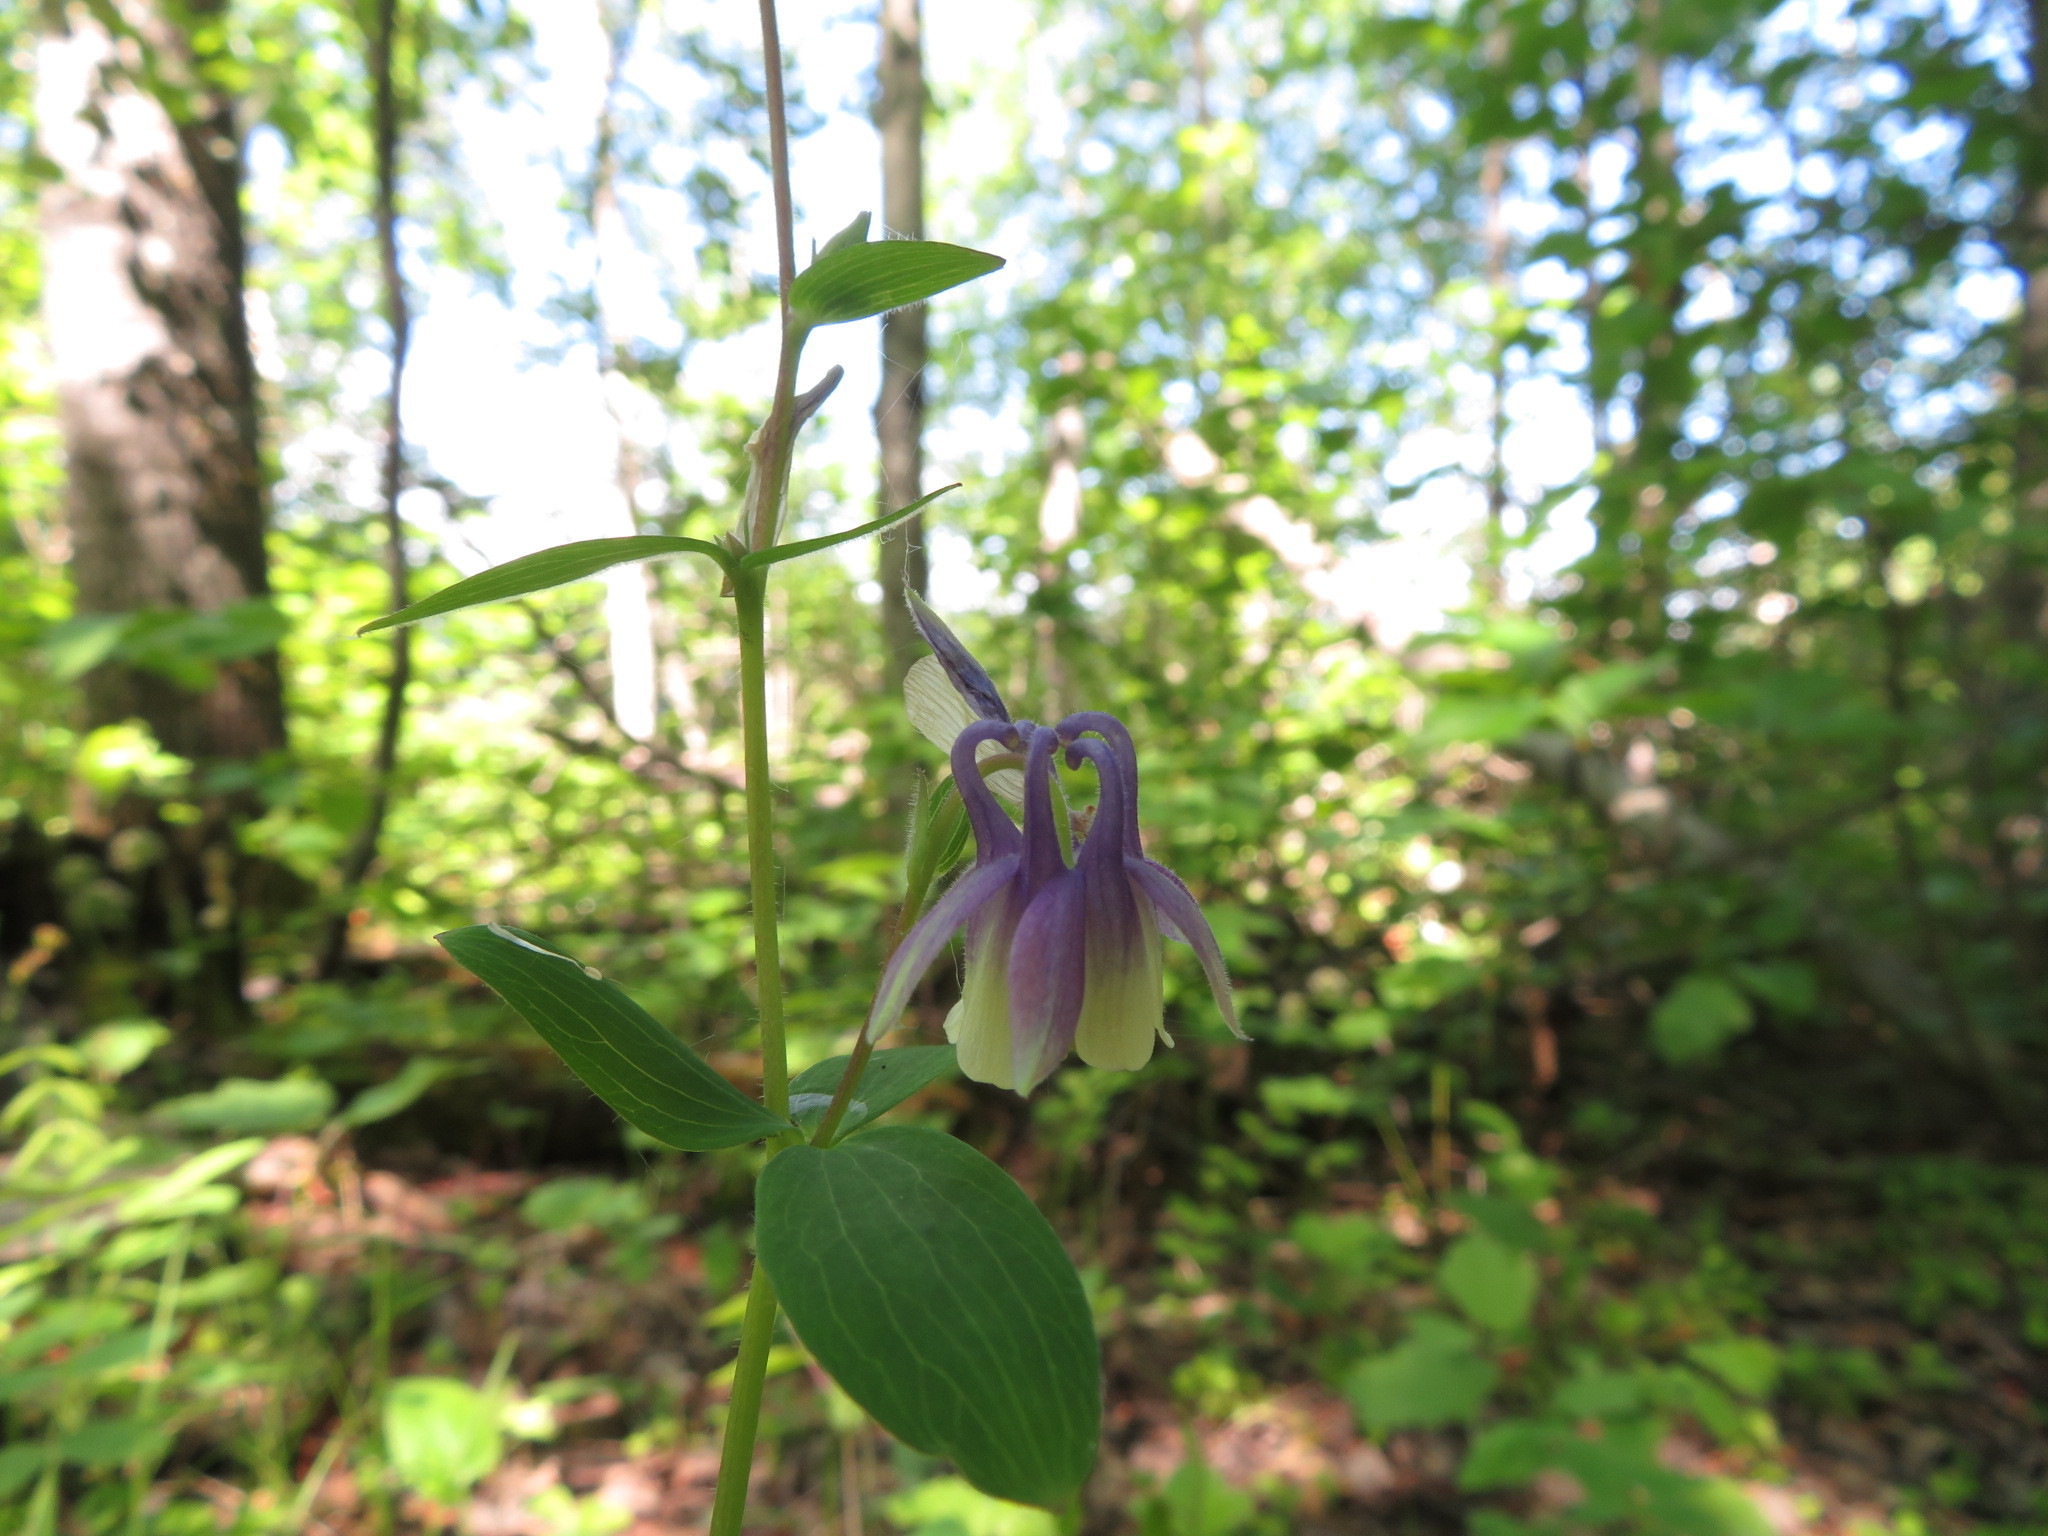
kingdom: Plantae
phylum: Tracheophyta
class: Magnoliopsida
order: Ranunculales
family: Ranunculaceae
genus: Aquilegia
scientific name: Aquilegia brevistyla
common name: Yukon columbine
